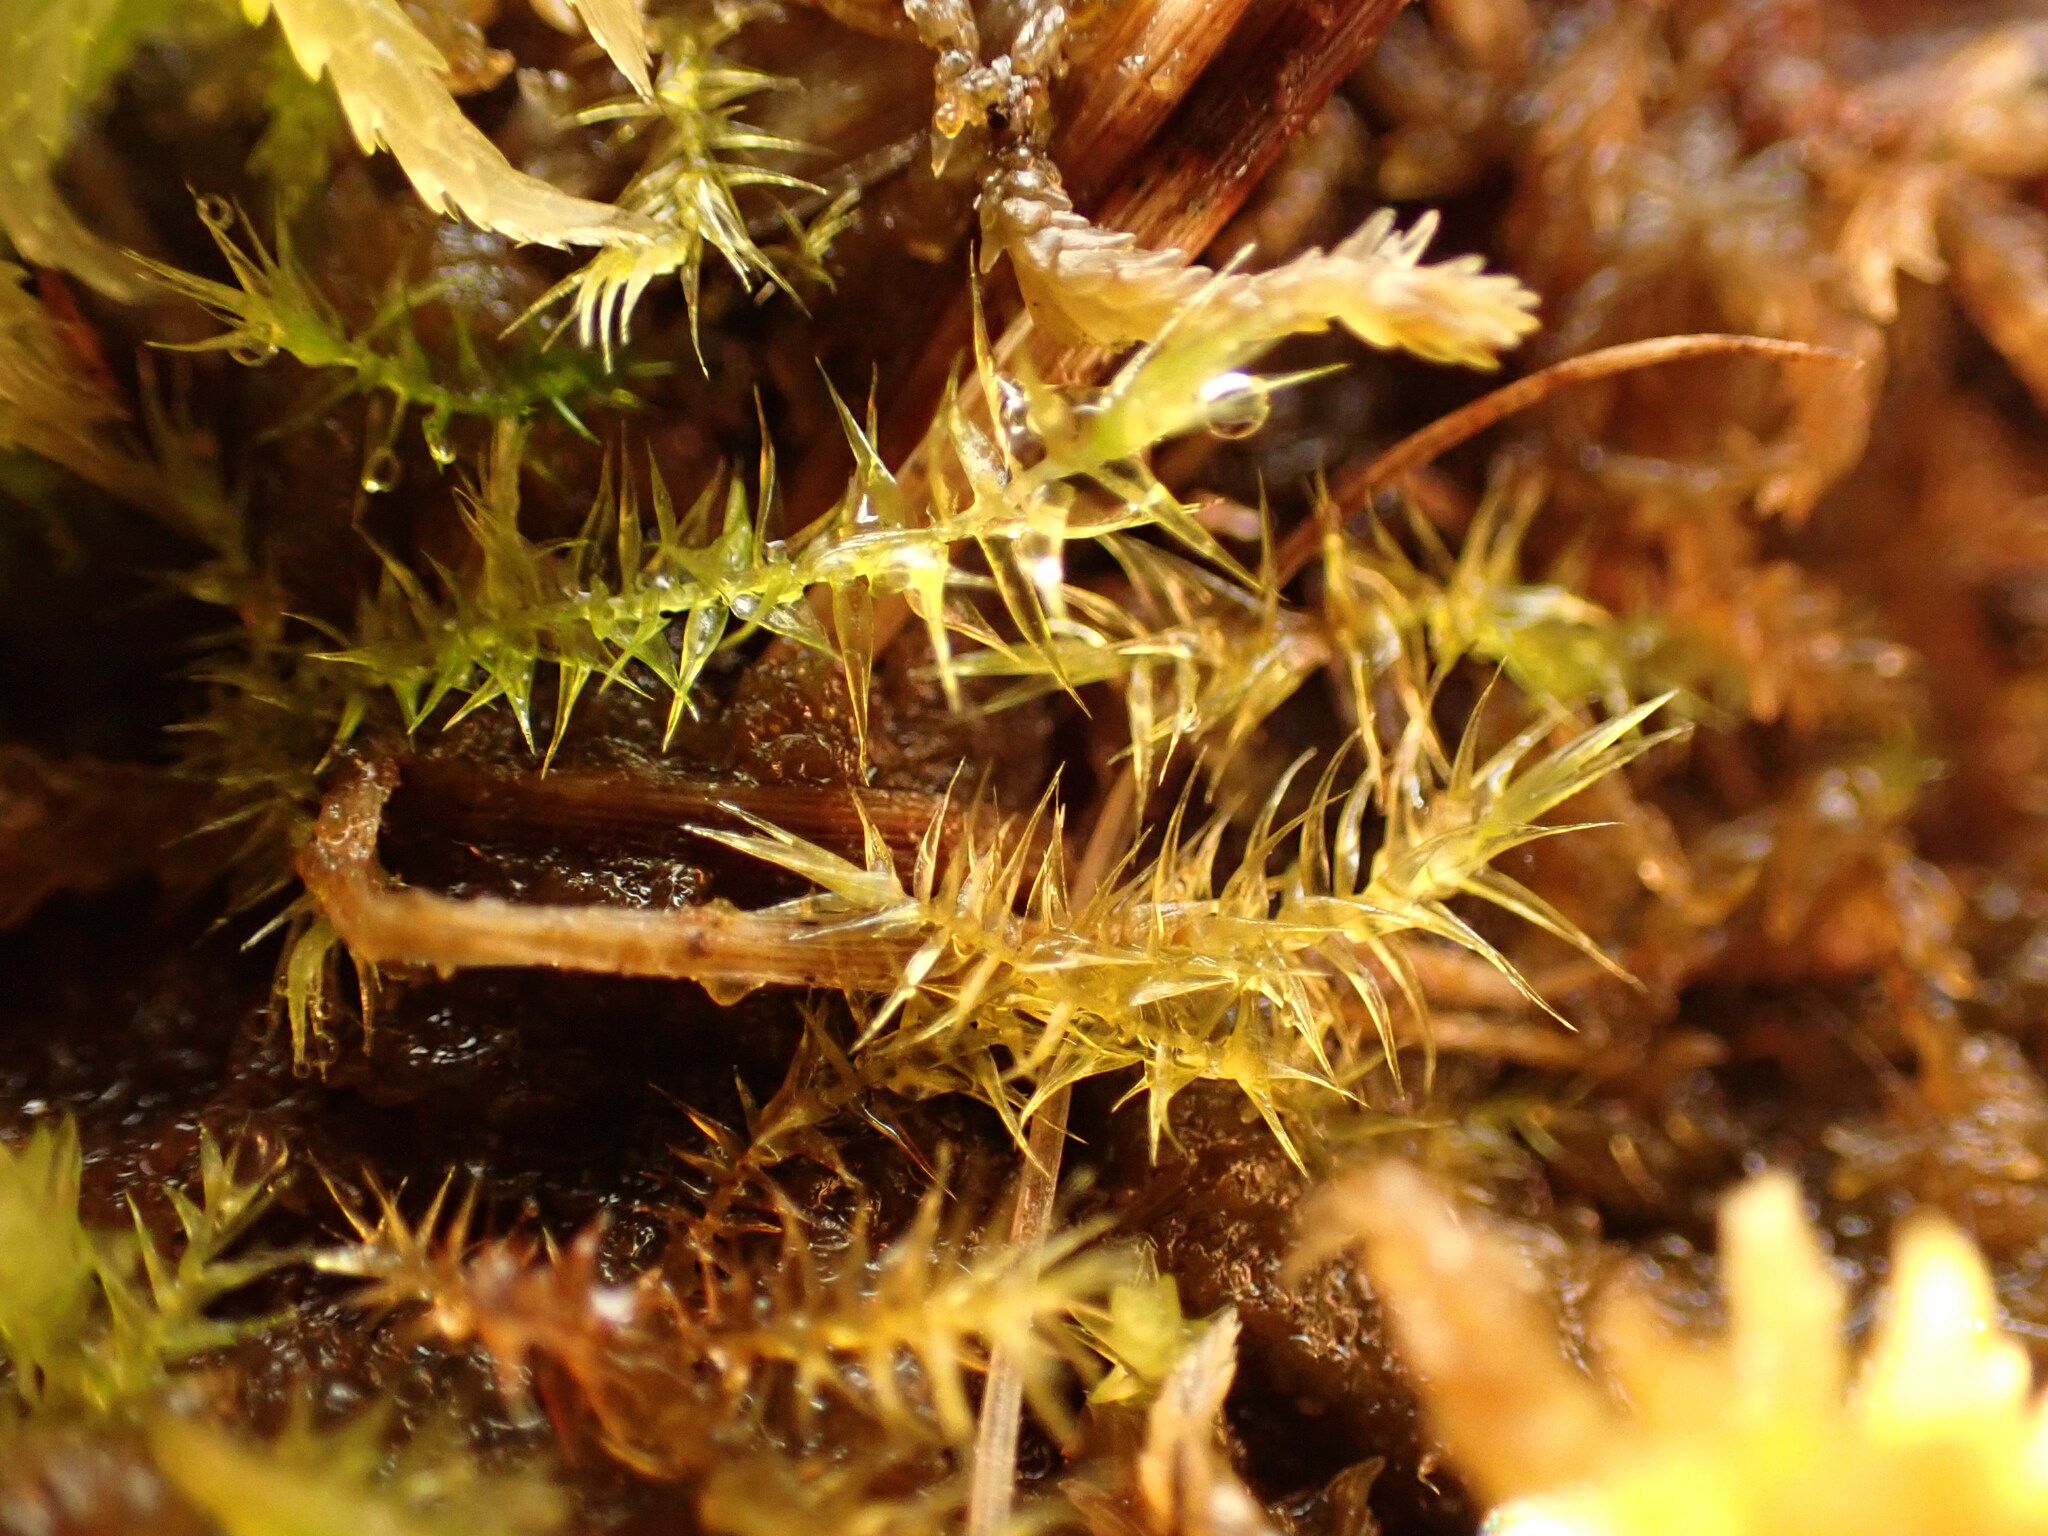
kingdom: Plantae
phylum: Bryophyta
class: Bryopsida
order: Hypnales
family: Amblystegiaceae
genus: Campylium
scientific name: Campylium stellatum
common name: Yellow starry fen moss
